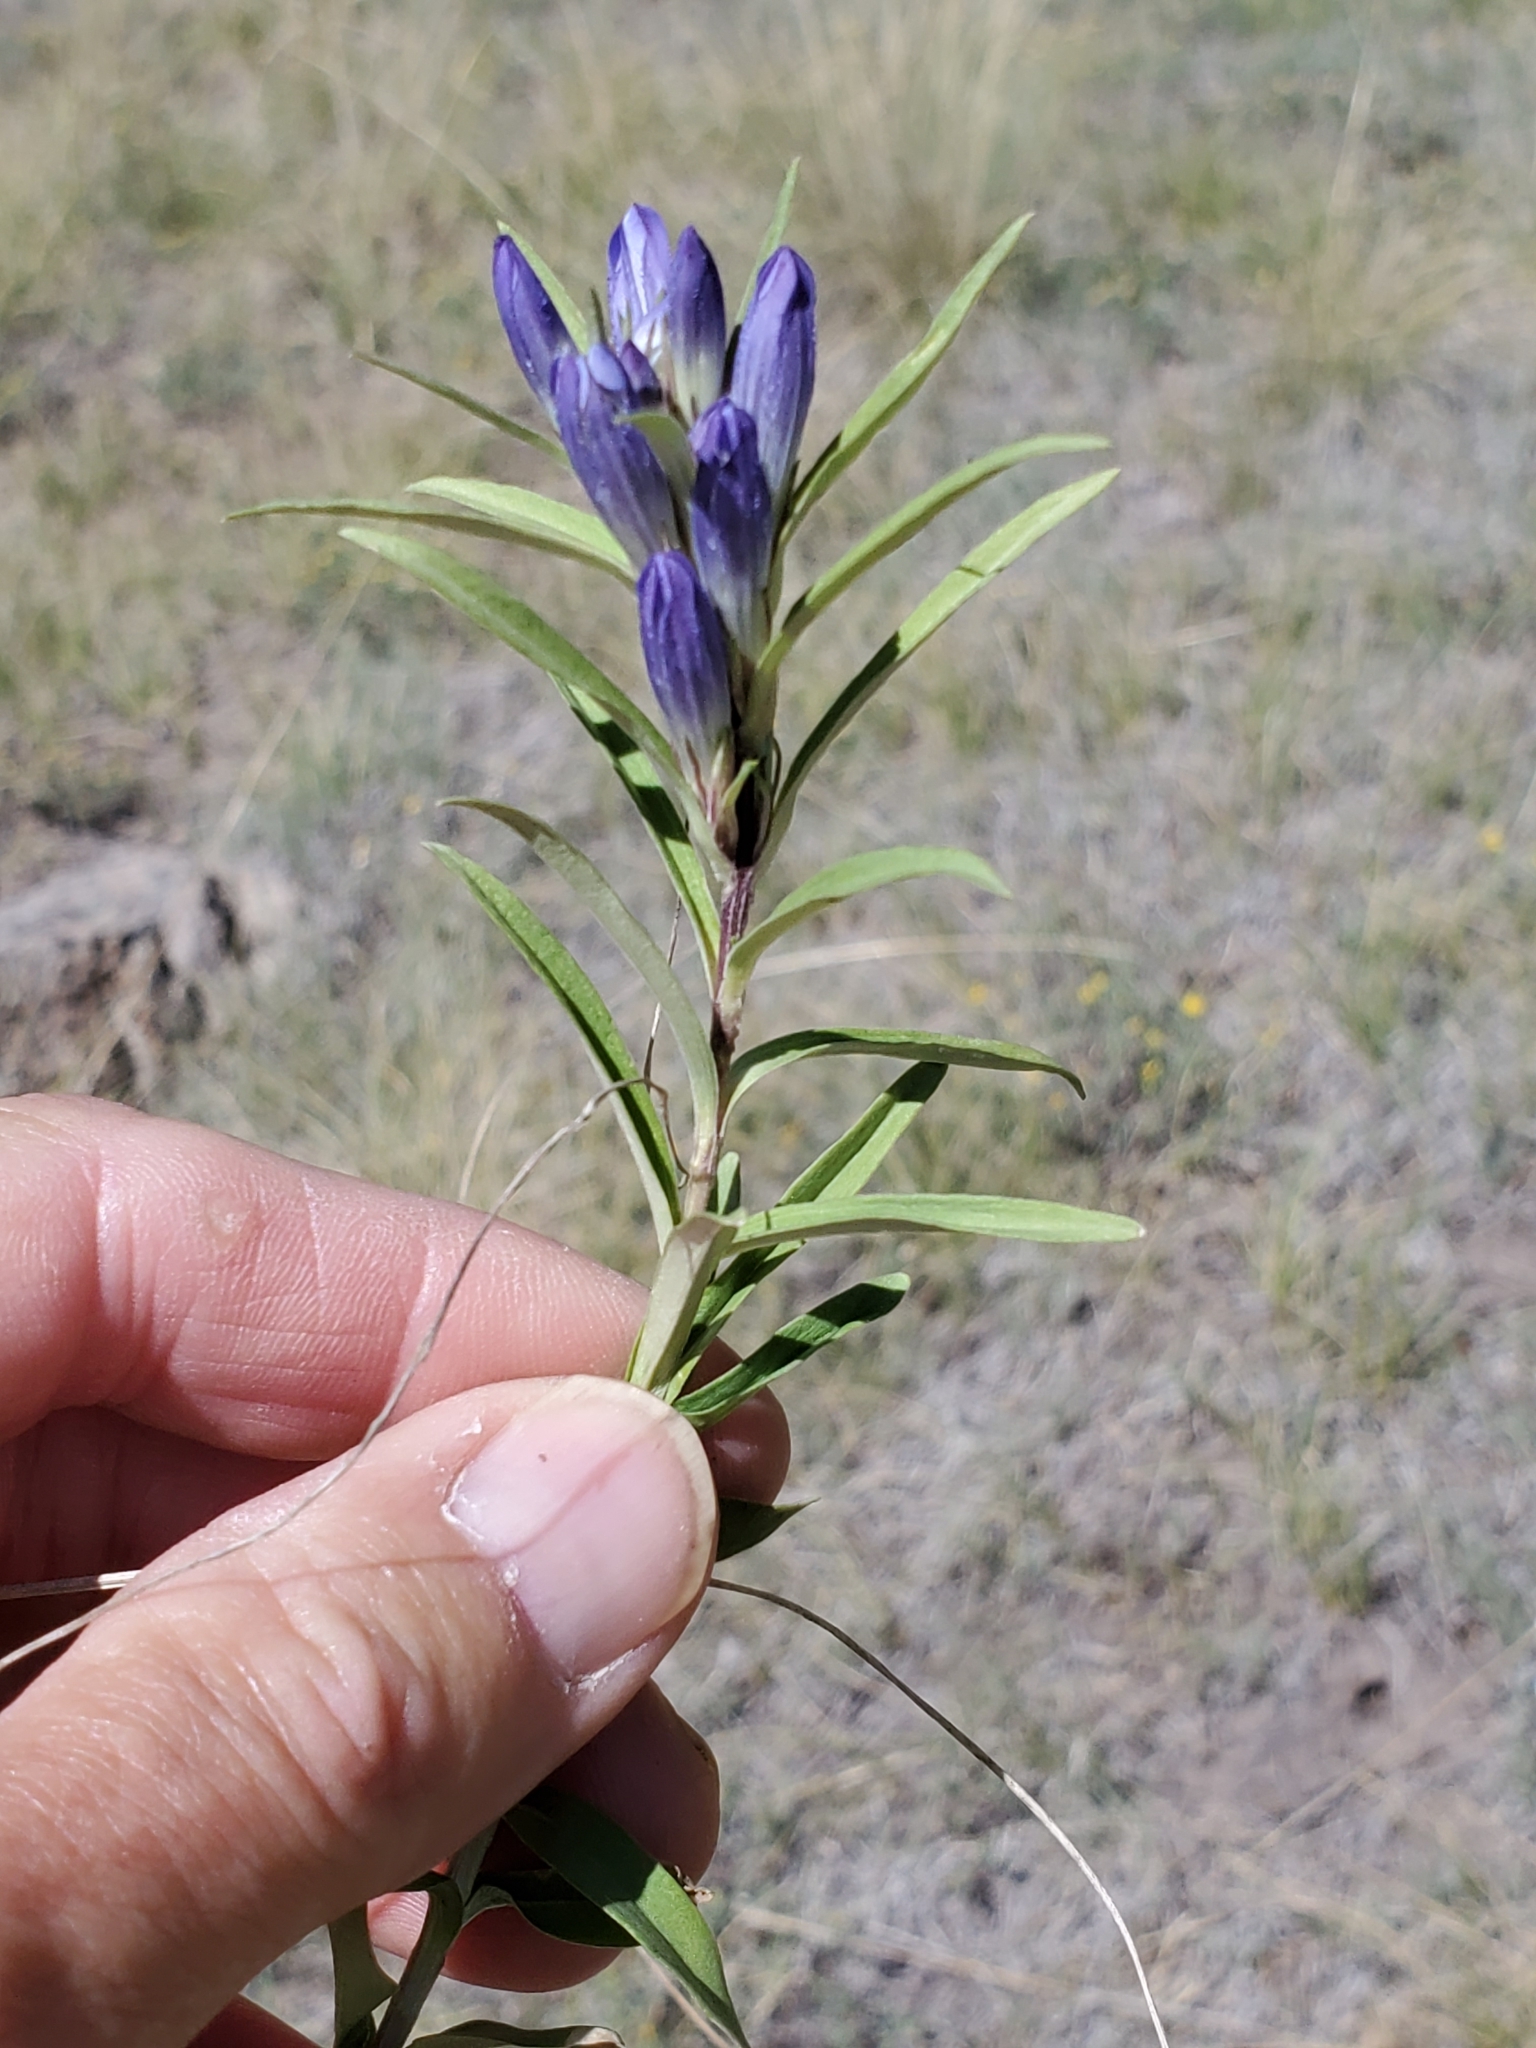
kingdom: Plantae
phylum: Tracheophyta
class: Magnoliopsida
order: Gentianales
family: Gentianaceae
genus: Gentiana
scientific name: Gentiana affinis
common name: Rocky mountain gentian
